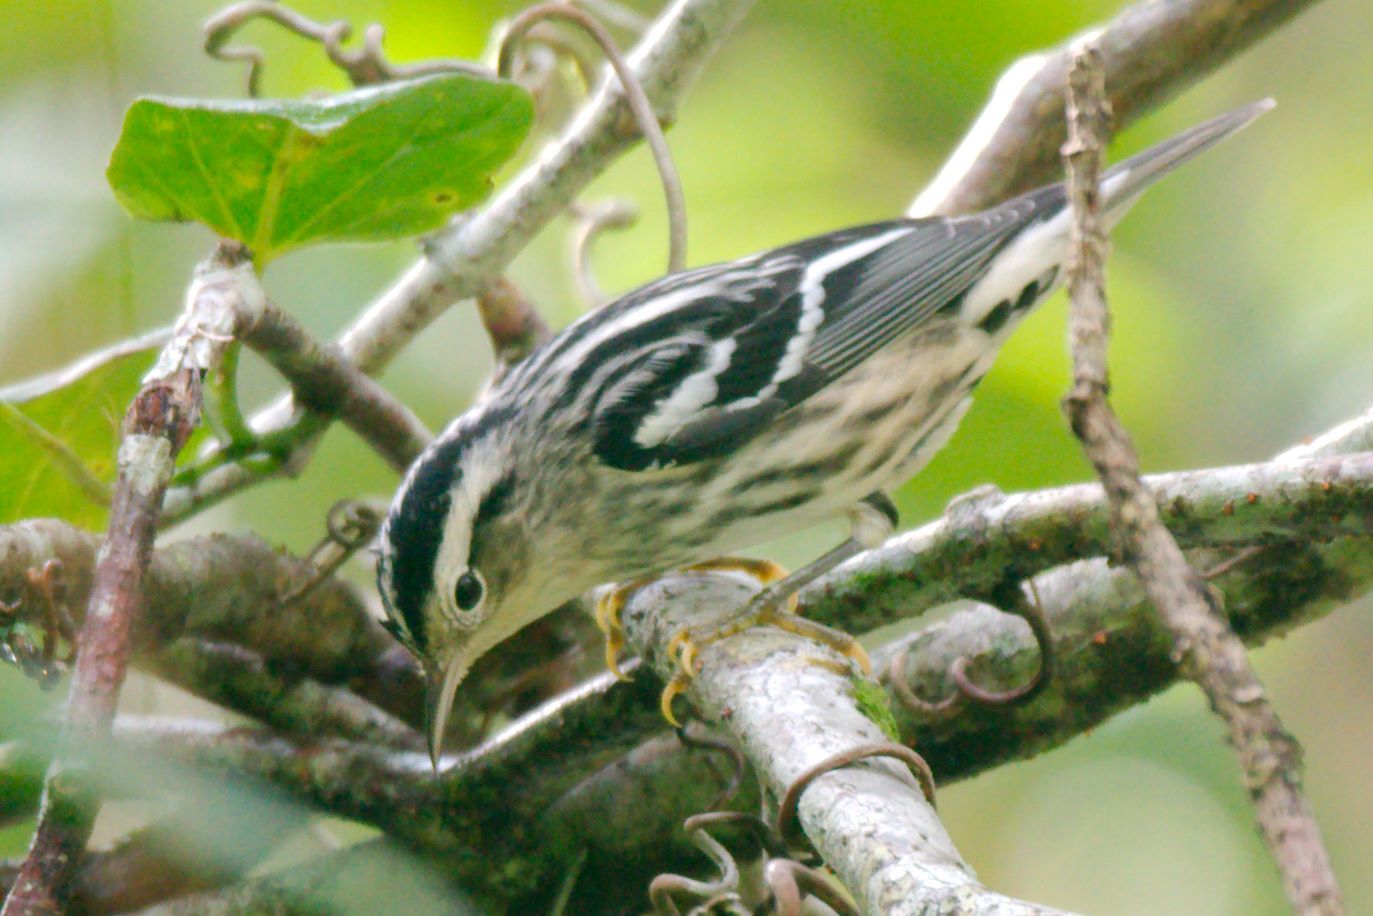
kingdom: Animalia
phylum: Chordata
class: Aves
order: Passeriformes
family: Parulidae
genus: Mniotilta
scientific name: Mniotilta varia
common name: Black-and-white warbler
